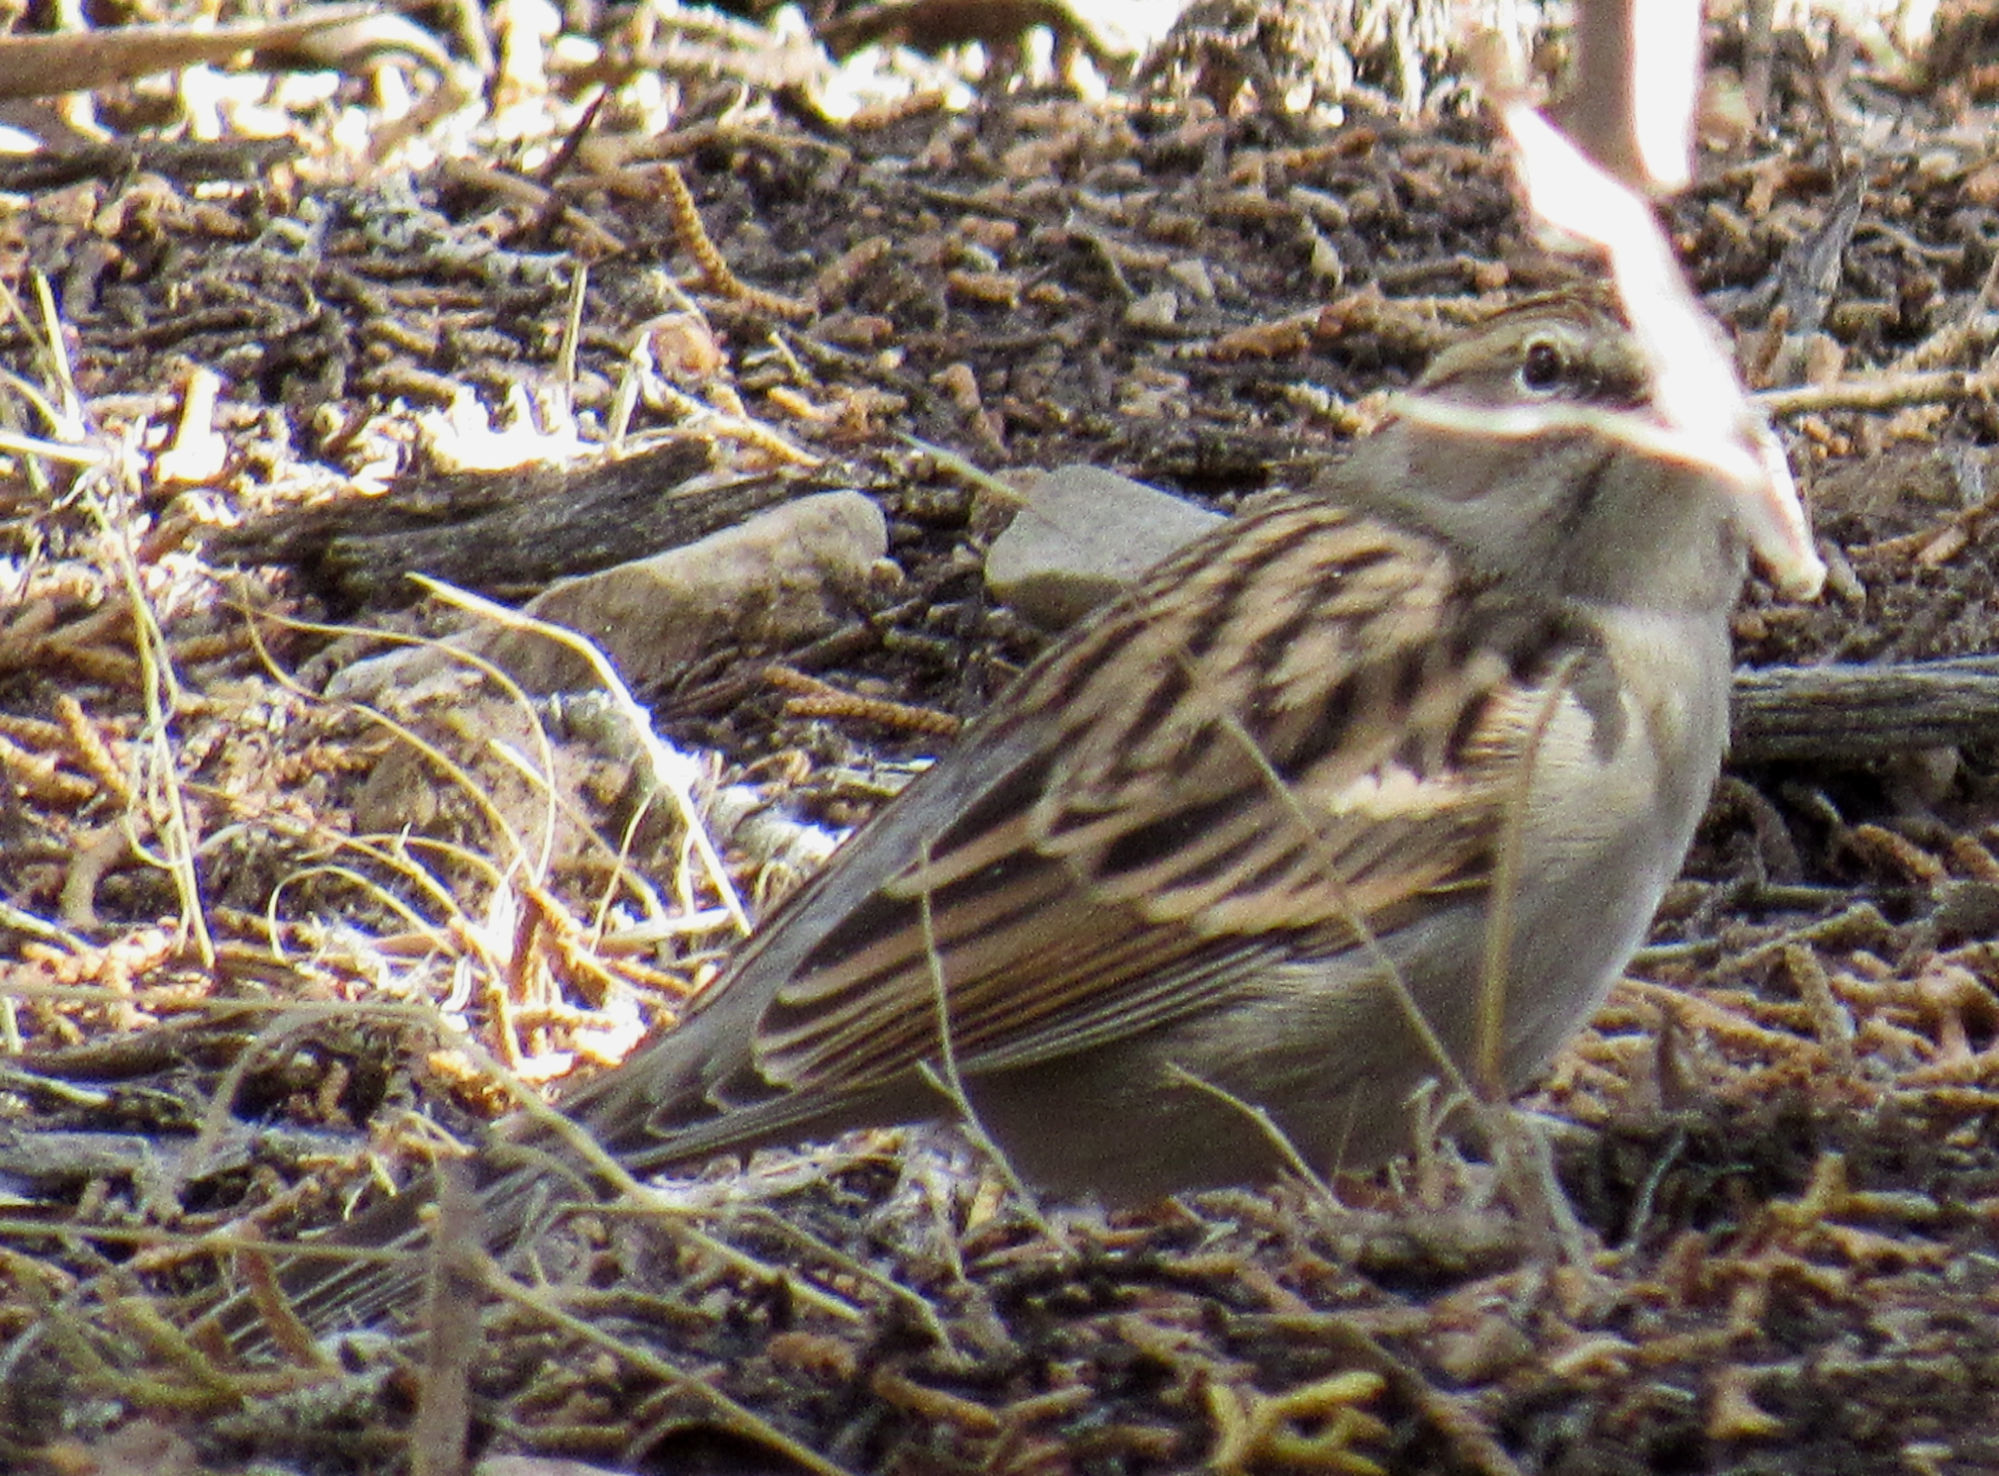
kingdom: Animalia
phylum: Chordata
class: Aves
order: Passeriformes
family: Passerellidae
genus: Spizella
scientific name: Spizella passerina
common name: Chipping sparrow
